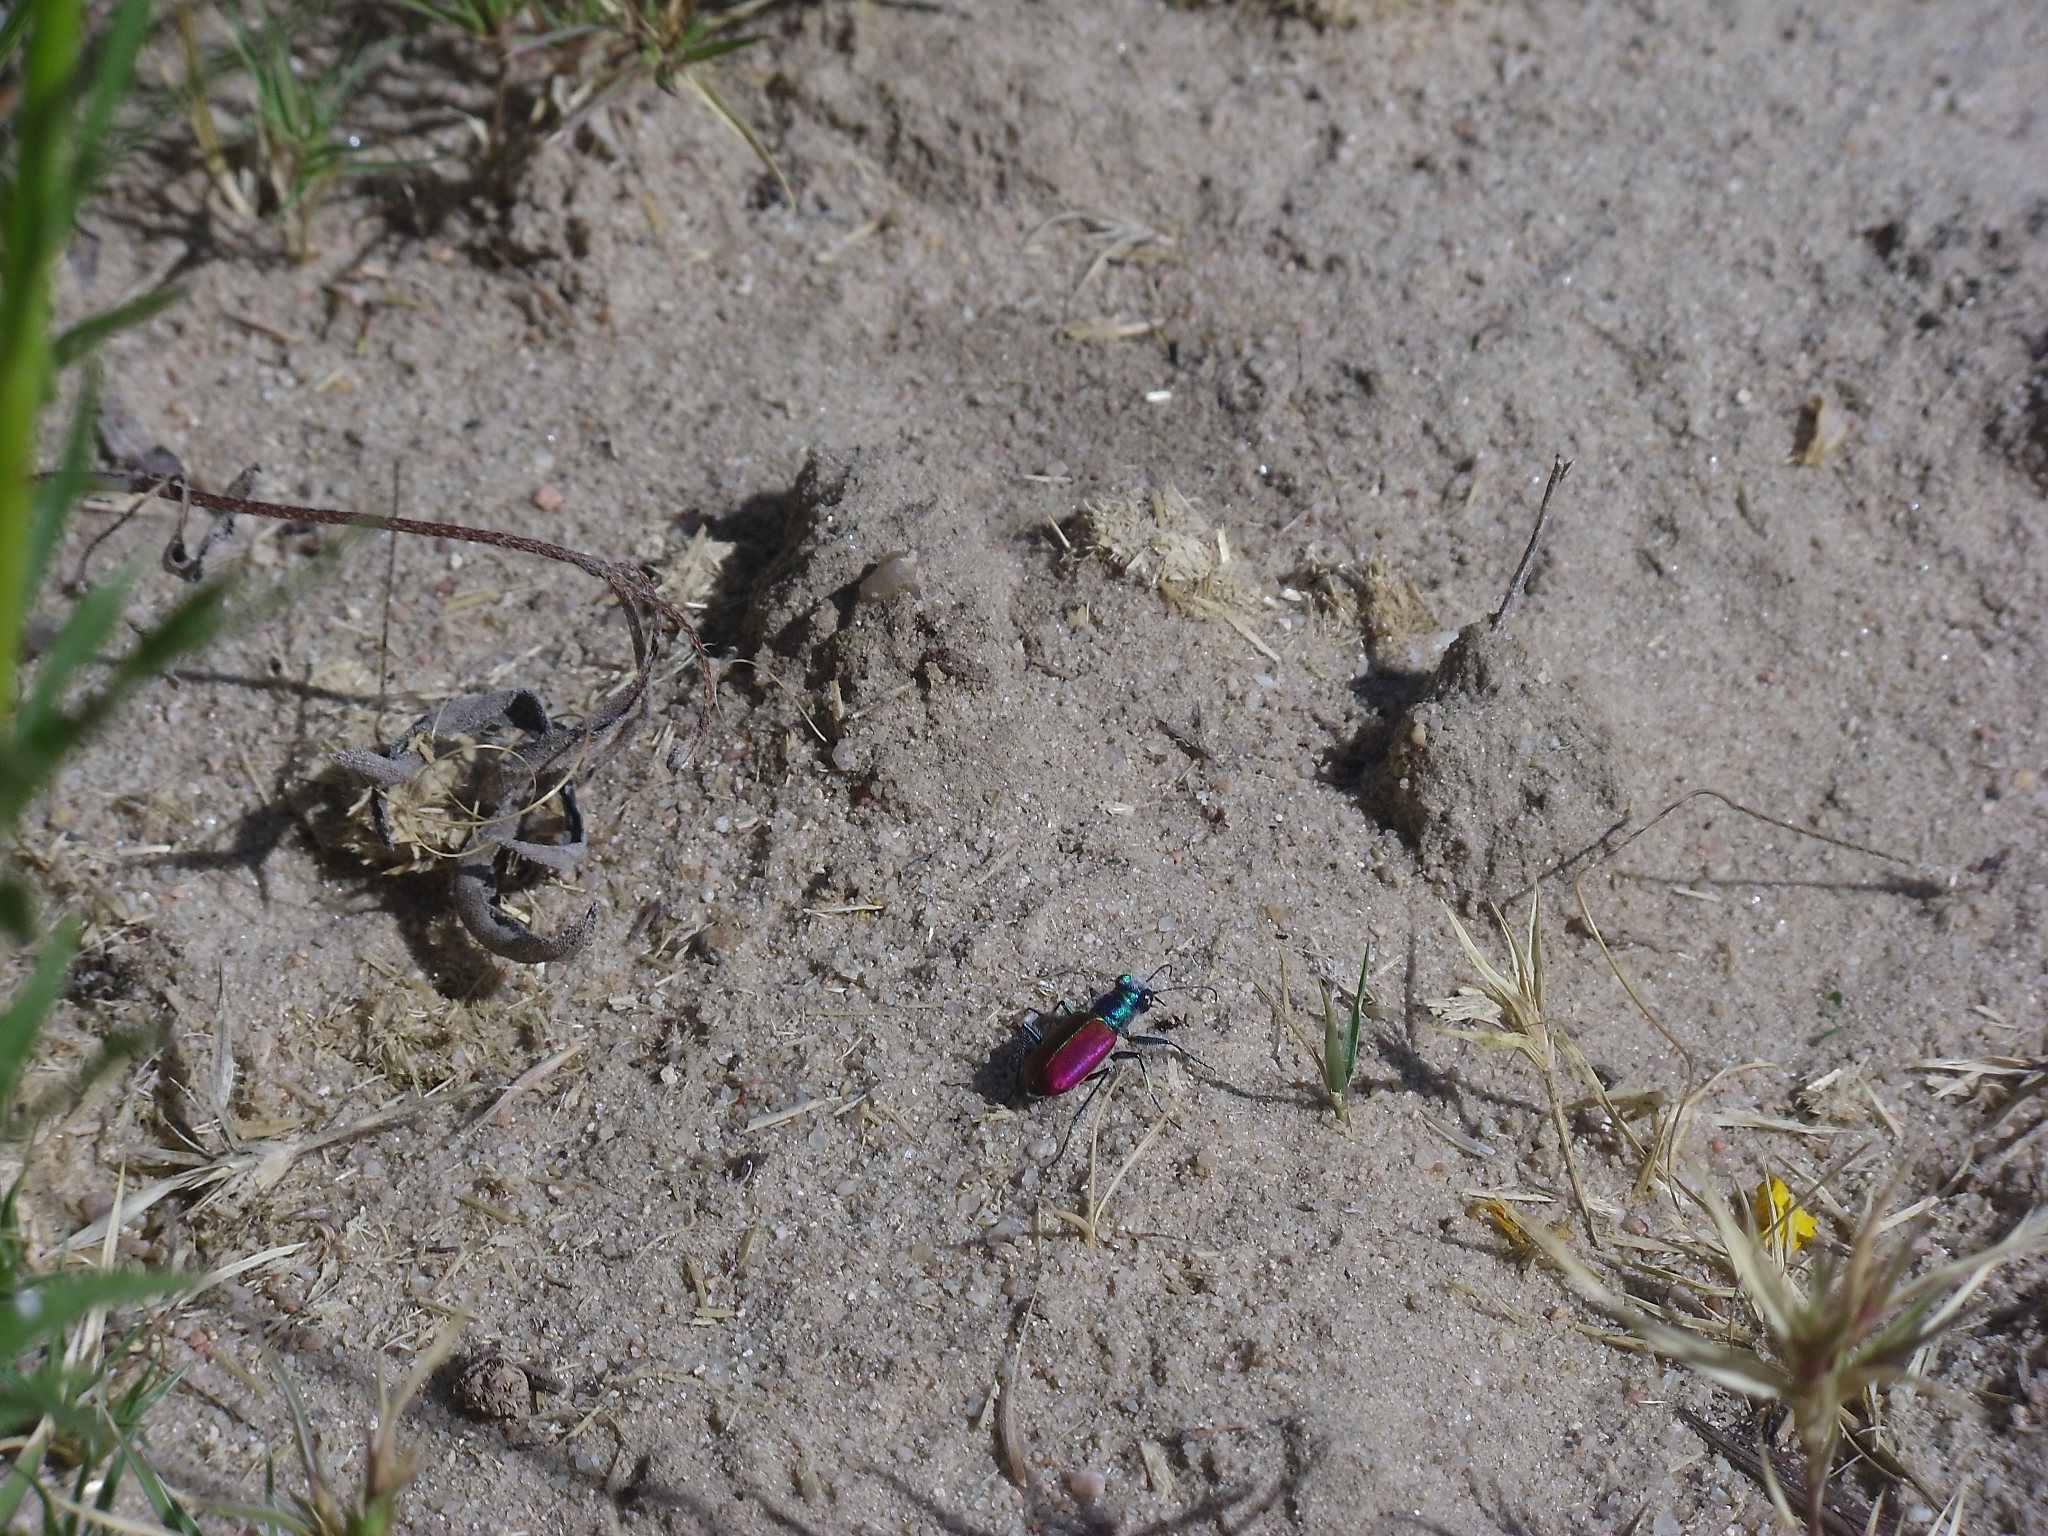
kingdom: Animalia
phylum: Arthropoda
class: Insecta
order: Coleoptera
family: Carabidae
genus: Cicindela
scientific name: Cicindela scutellaris
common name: Festive tiger beetle
